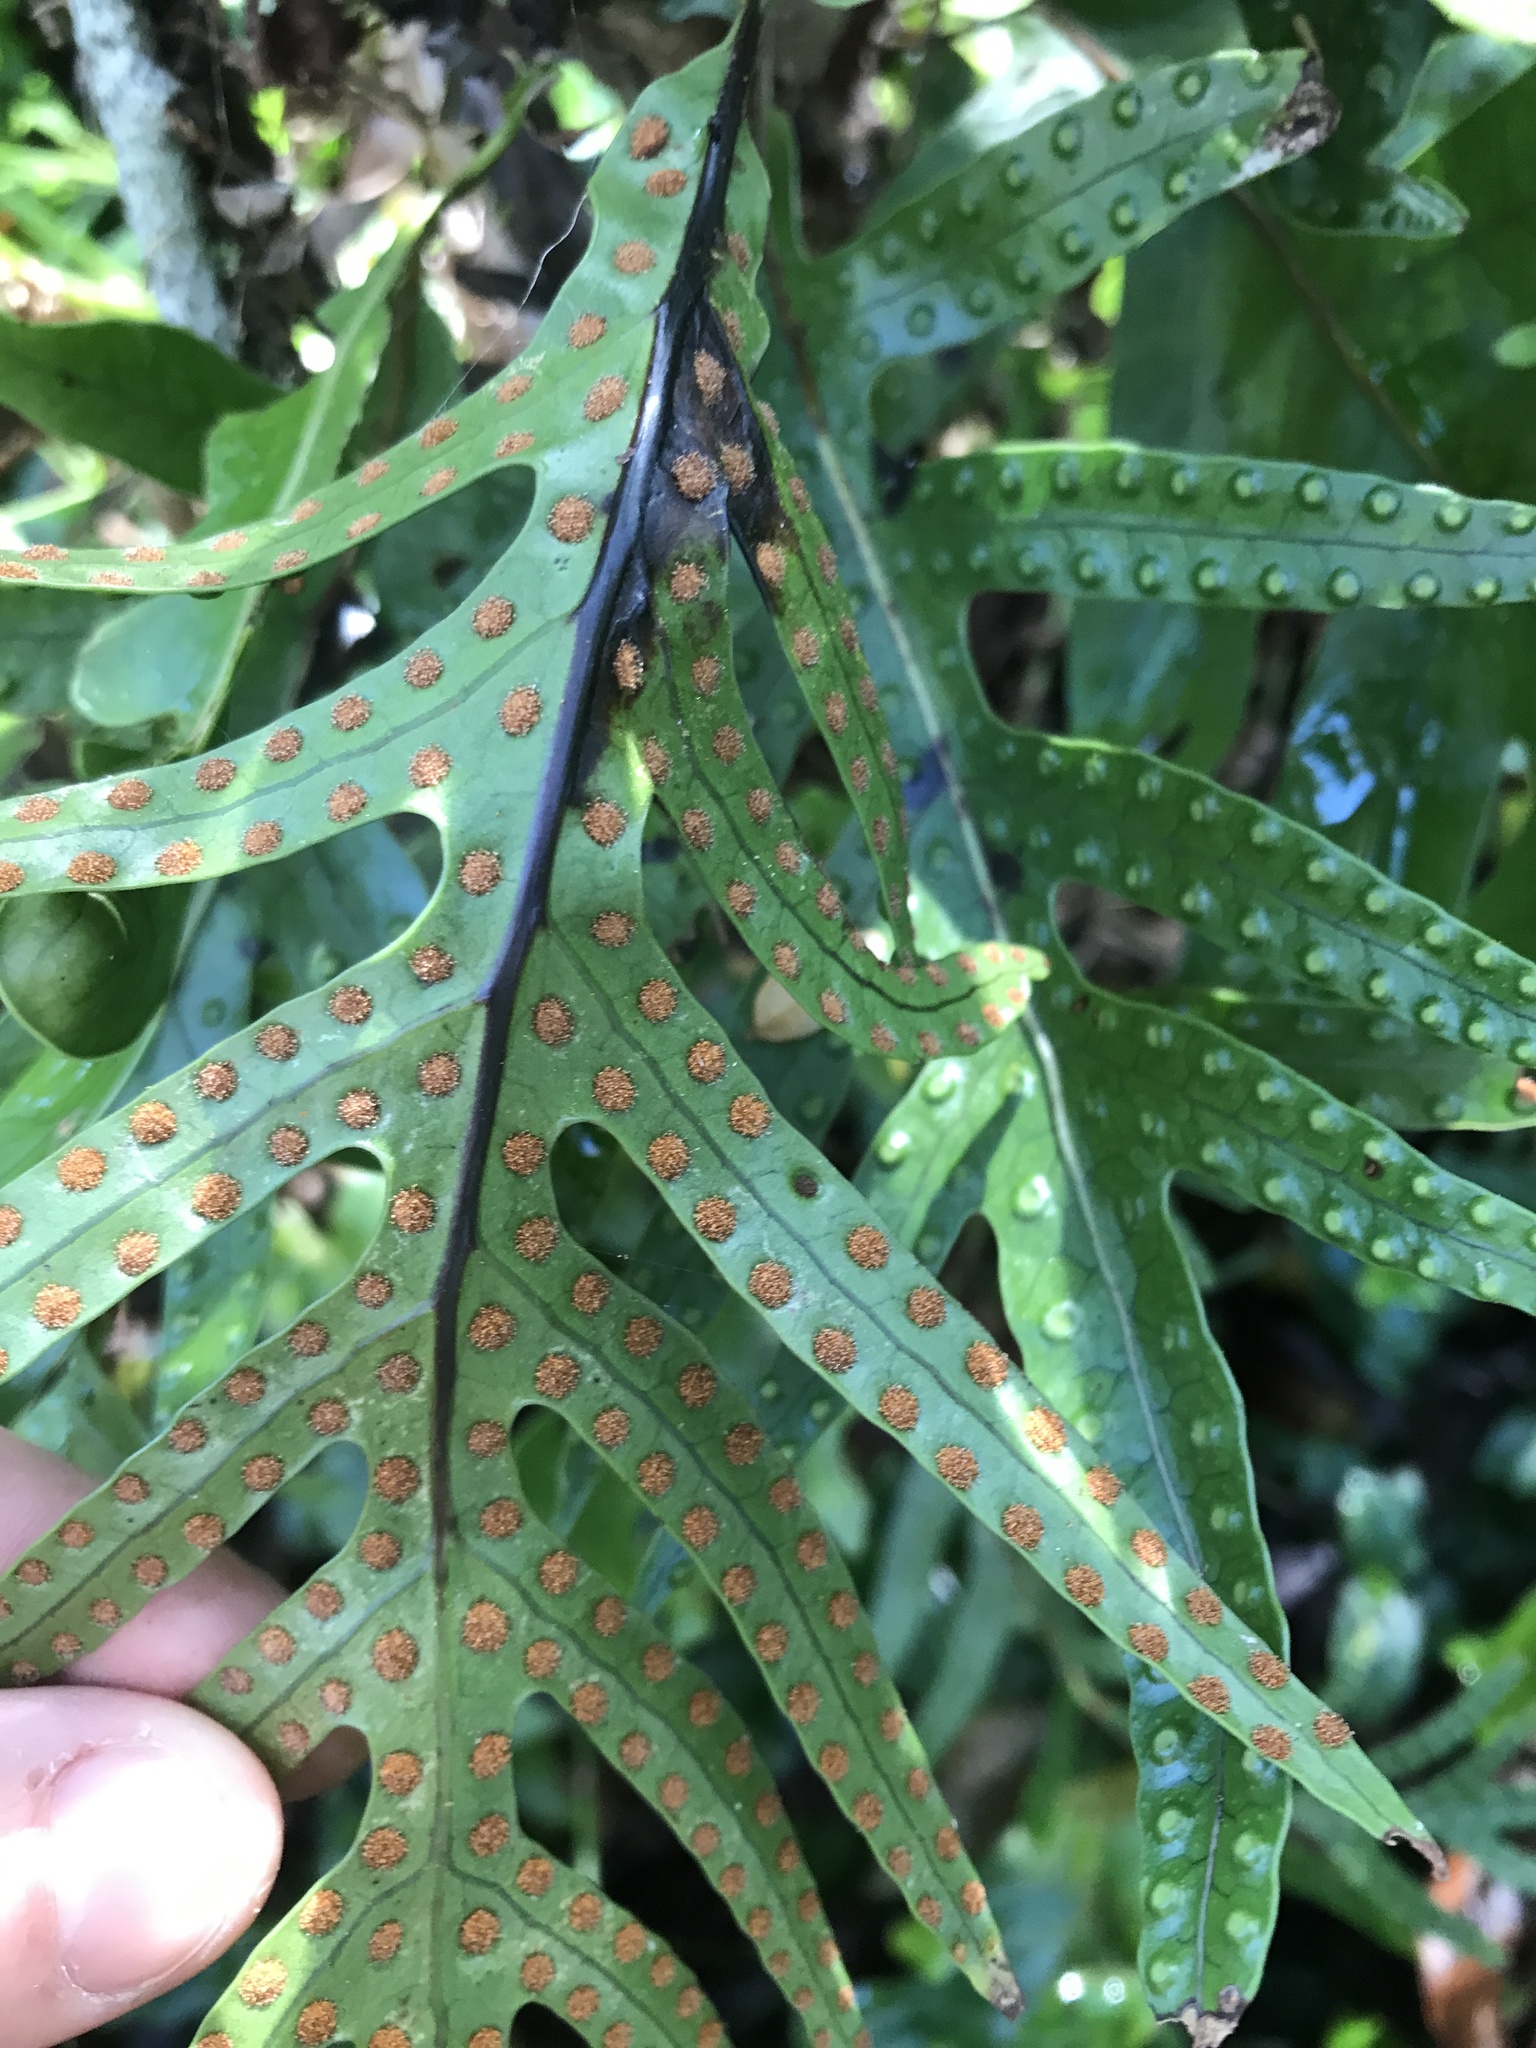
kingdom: Plantae
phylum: Tracheophyta
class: Polypodiopsida
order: Polypodiales
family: Polypodiaceae
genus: Lecanopteris
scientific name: Lecanopteris pustulata
